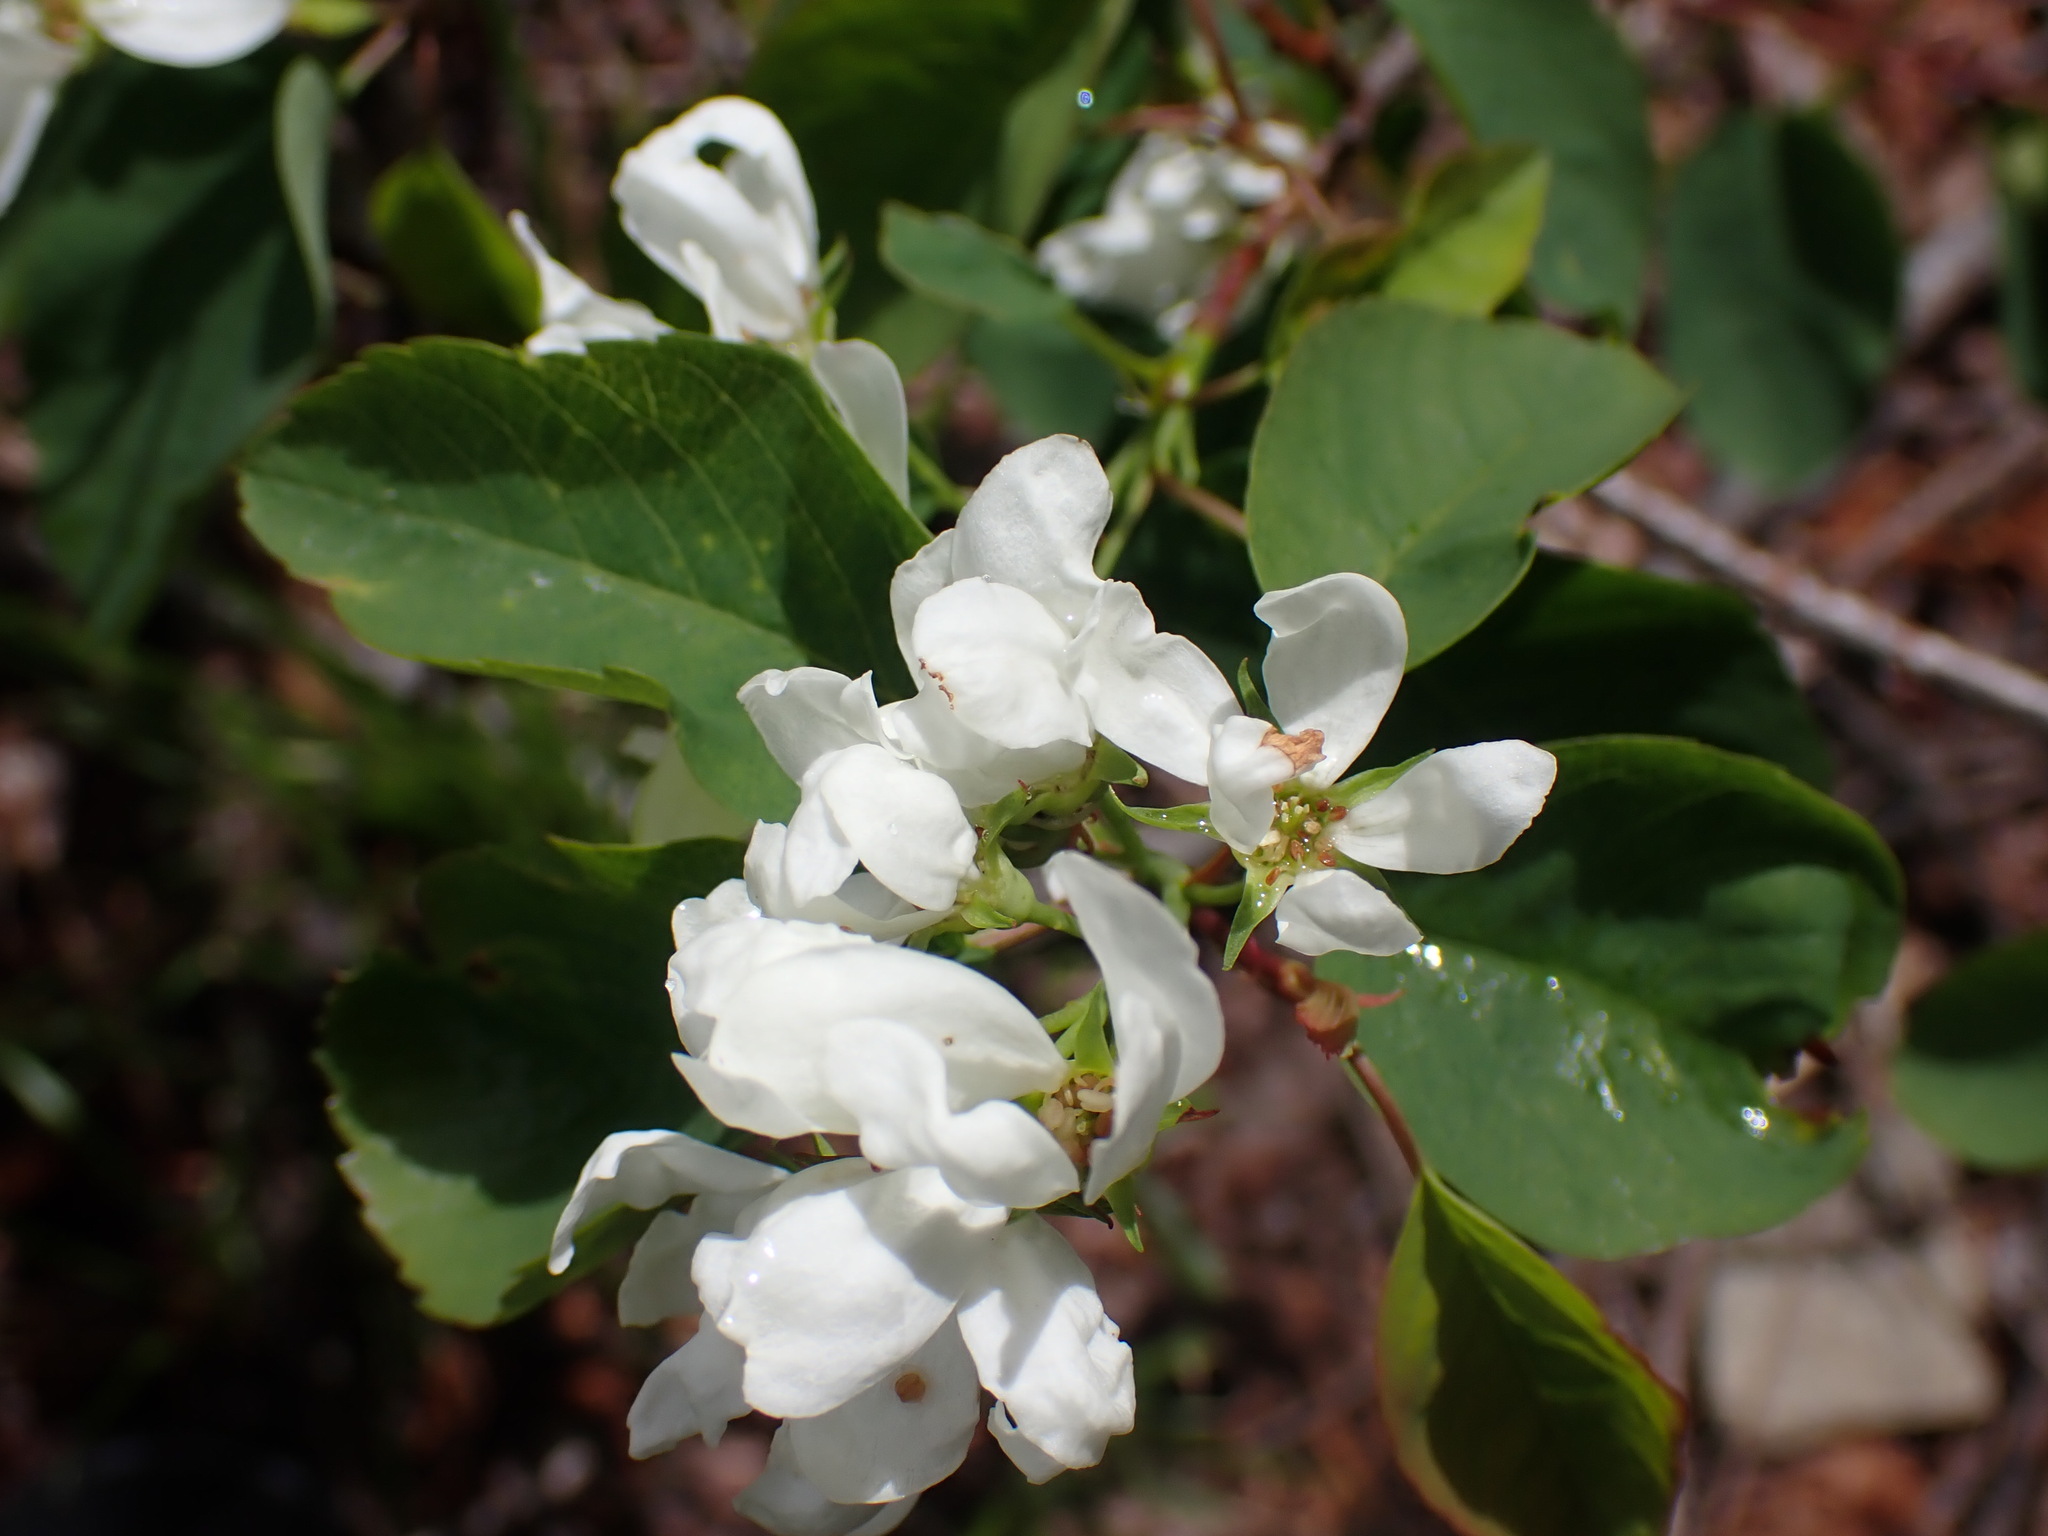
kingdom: Plantae
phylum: Tracheophyta
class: Magnoliopsida
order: Rosales
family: Rosaceae
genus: Amelanchier
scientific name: Amelanchier alnifolia
